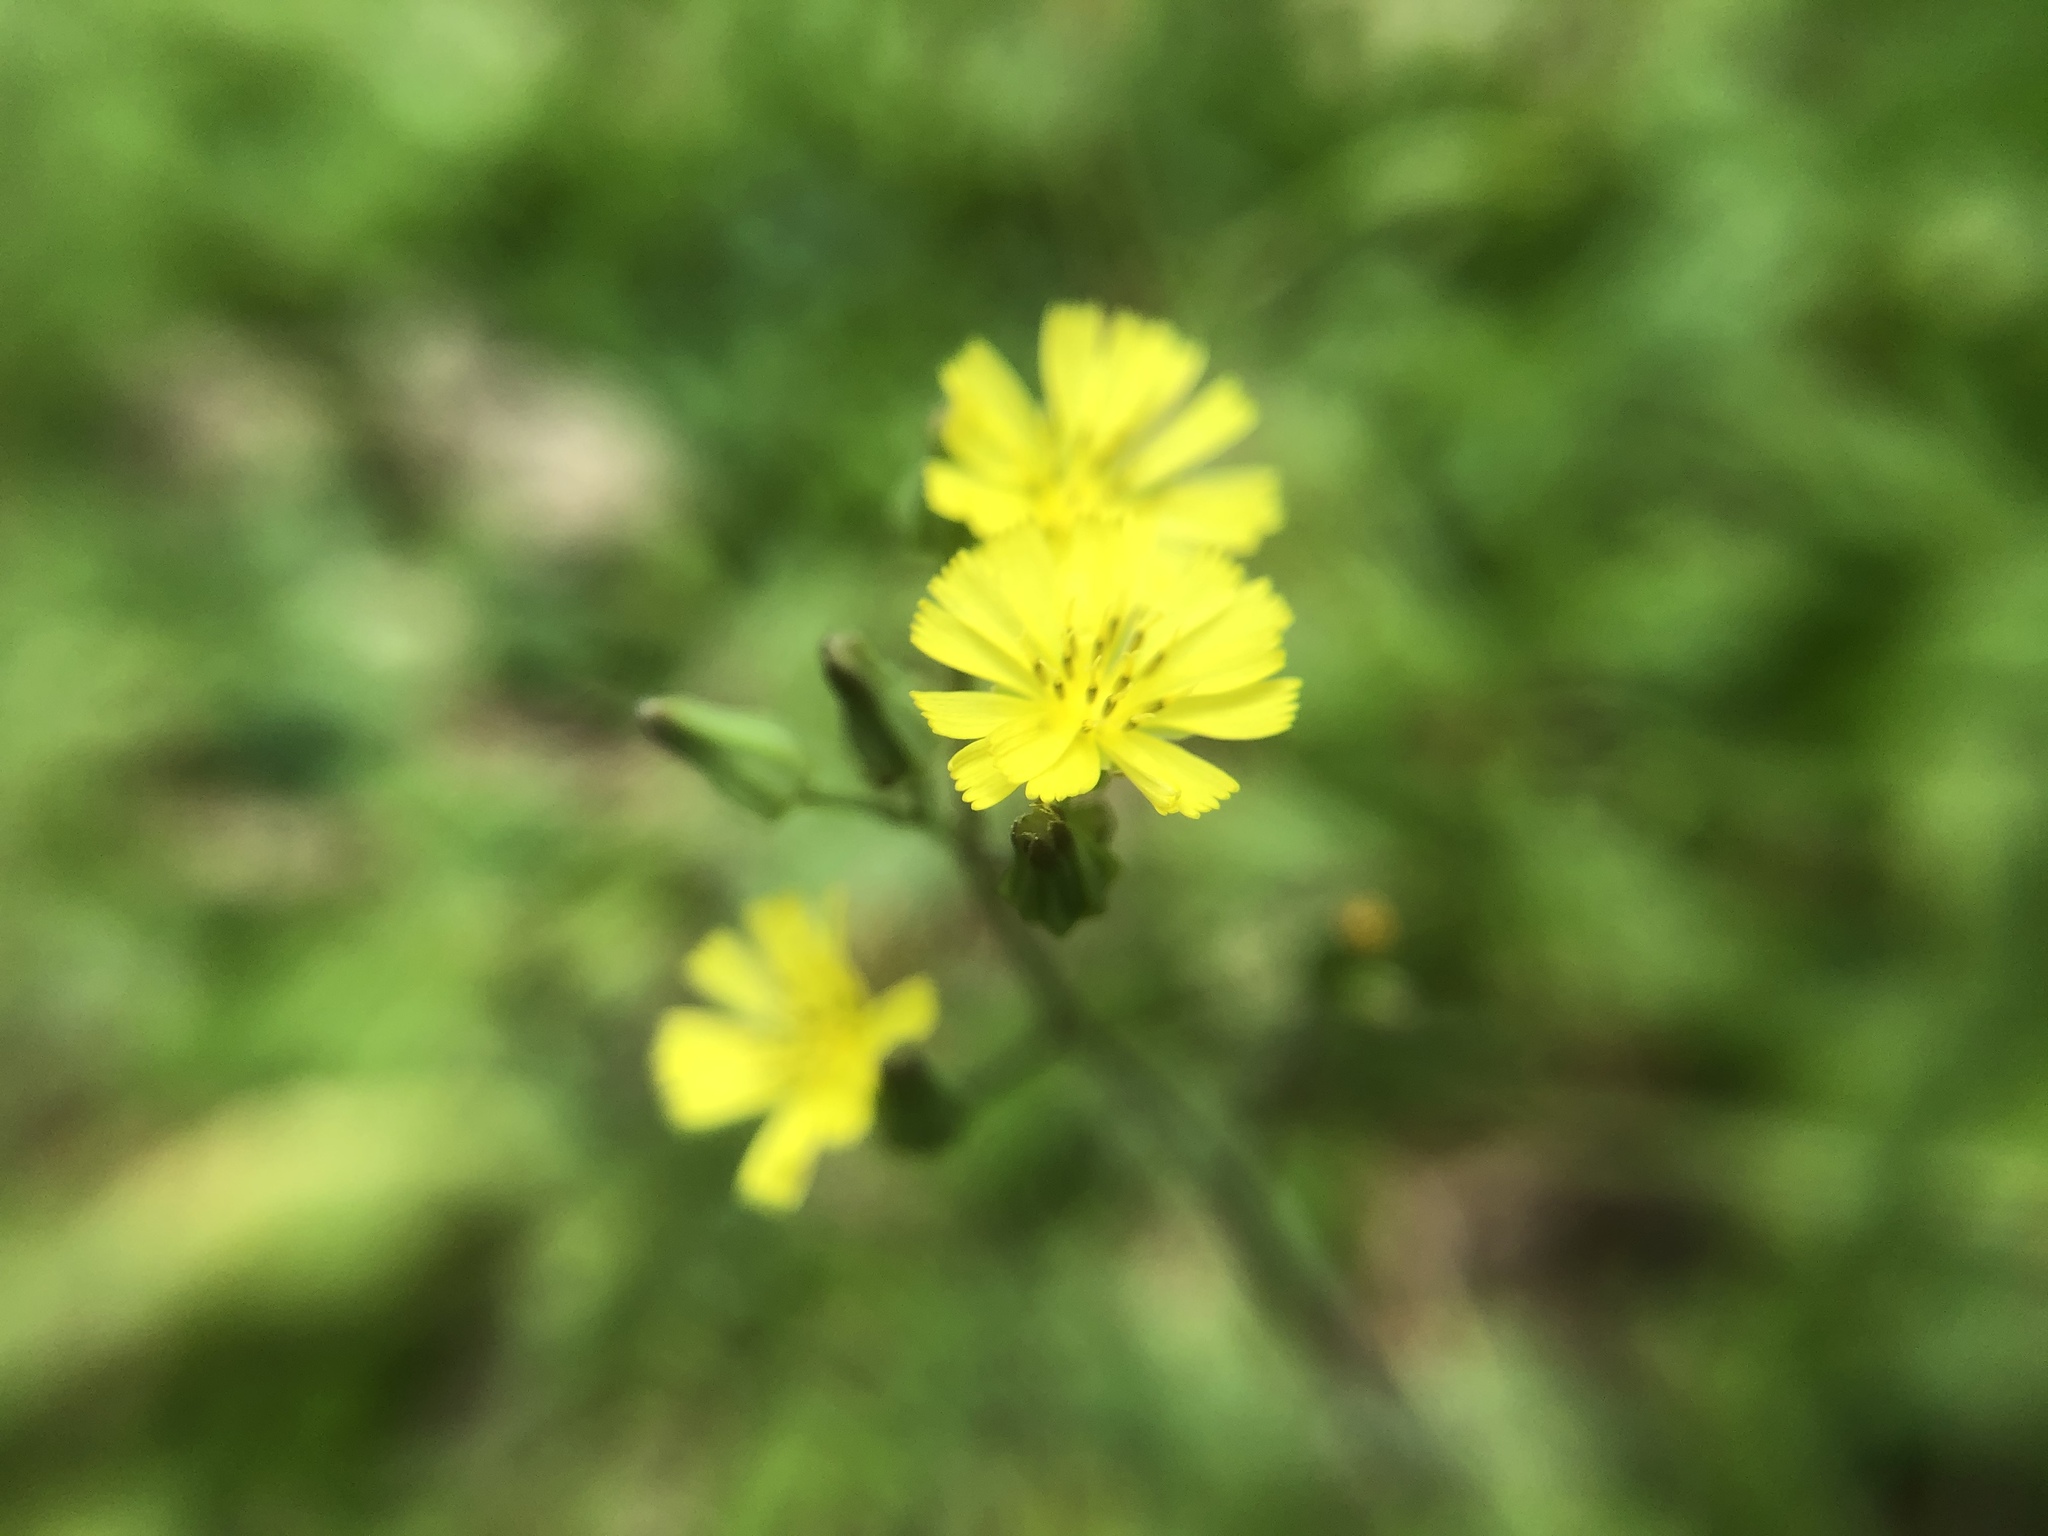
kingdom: Plantae
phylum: Tracheophyta
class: Magnoliopsida
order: Asterales
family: Asteraceae
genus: Youngia
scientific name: Youngia japonica
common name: Oriental false hawksbeard
